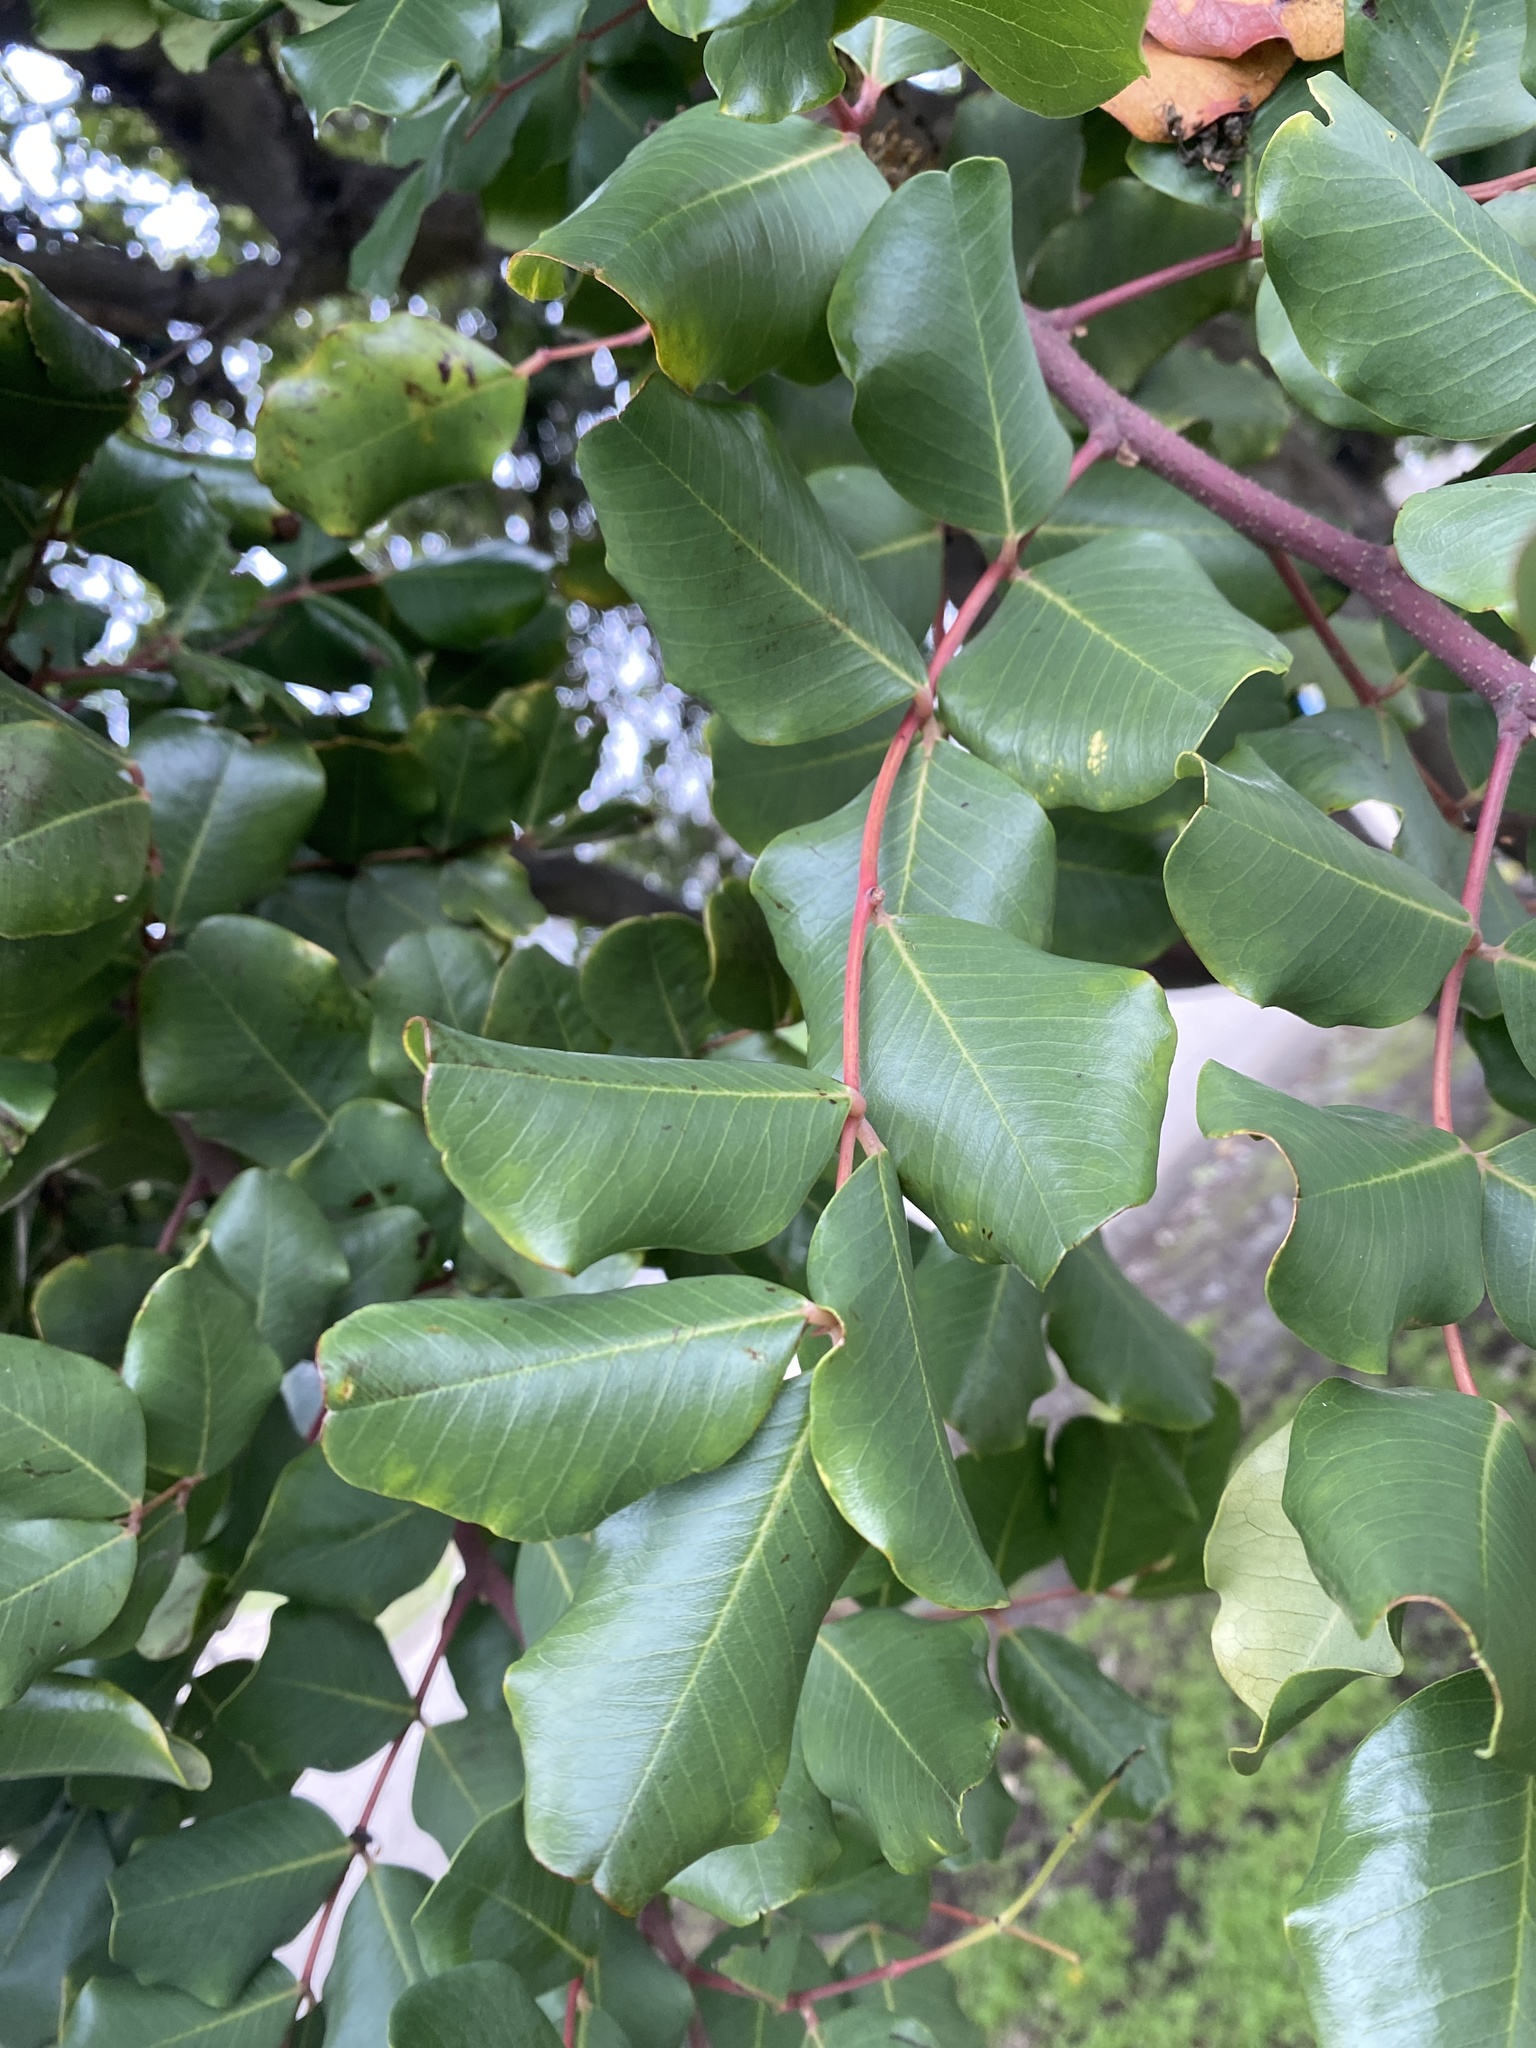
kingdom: Plantae
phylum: Tracheophyta
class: Magnoliopsida
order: Fabales
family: Fabaceae
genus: Ceratonia
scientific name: Ceratonia siliqua
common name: Carob
